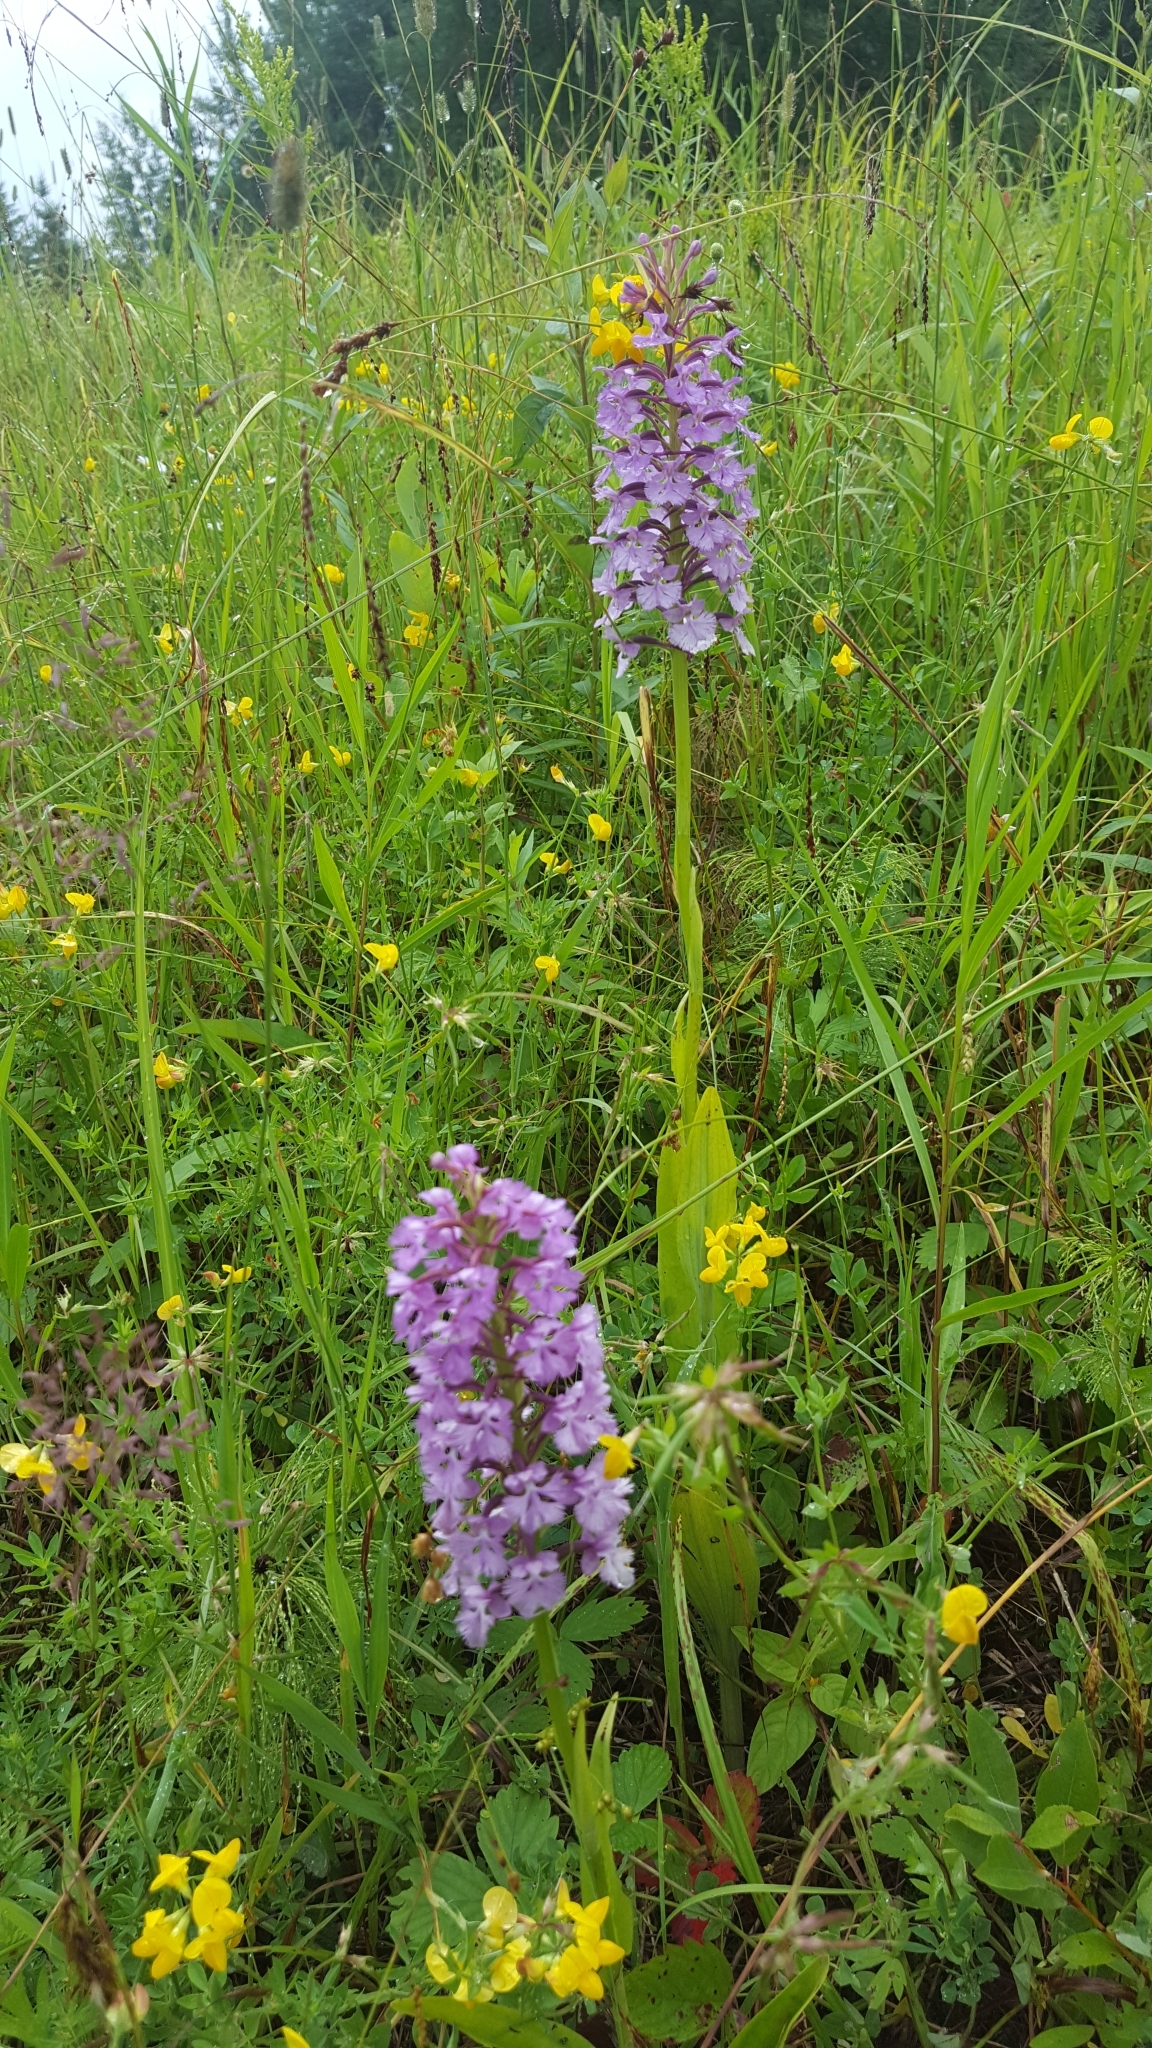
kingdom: Plantae
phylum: Tracheophyta
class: Liliopsida
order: Asparagales
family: Orchidaceae
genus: Platanthera
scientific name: Platanthera psycodes
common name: Lesser purple fringed orchid
